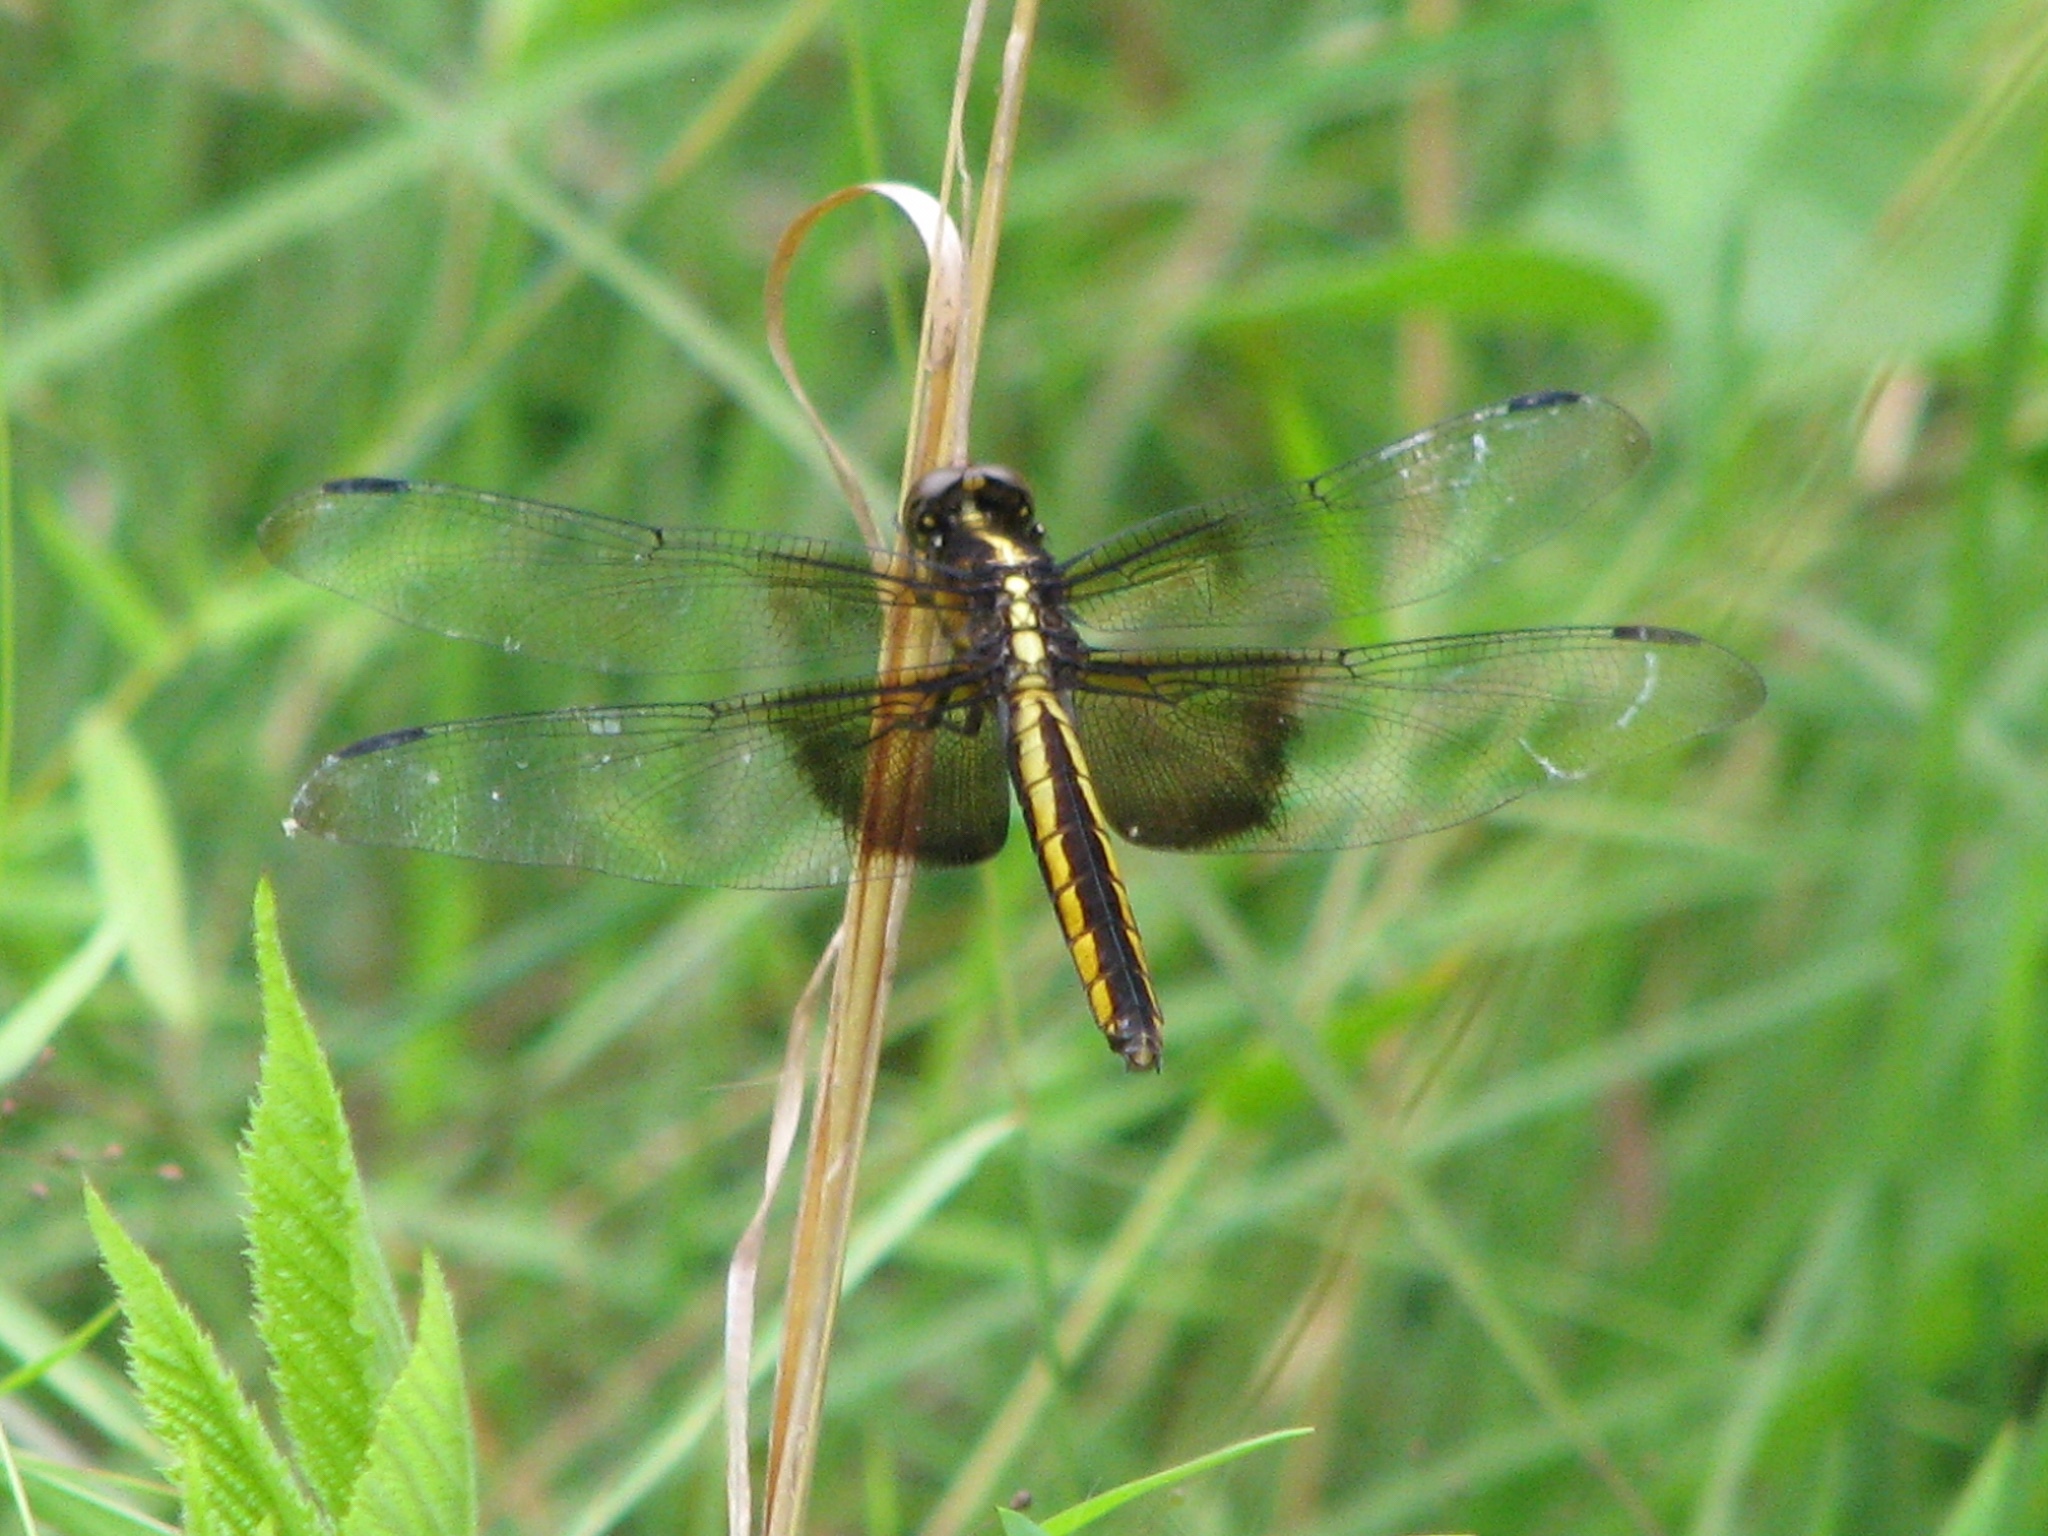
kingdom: Animalia
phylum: Arthropoda
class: Insecta
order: Odonata
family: Libellulidae
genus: Libellula
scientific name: Libellula luctuosa
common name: Widow skimmer
